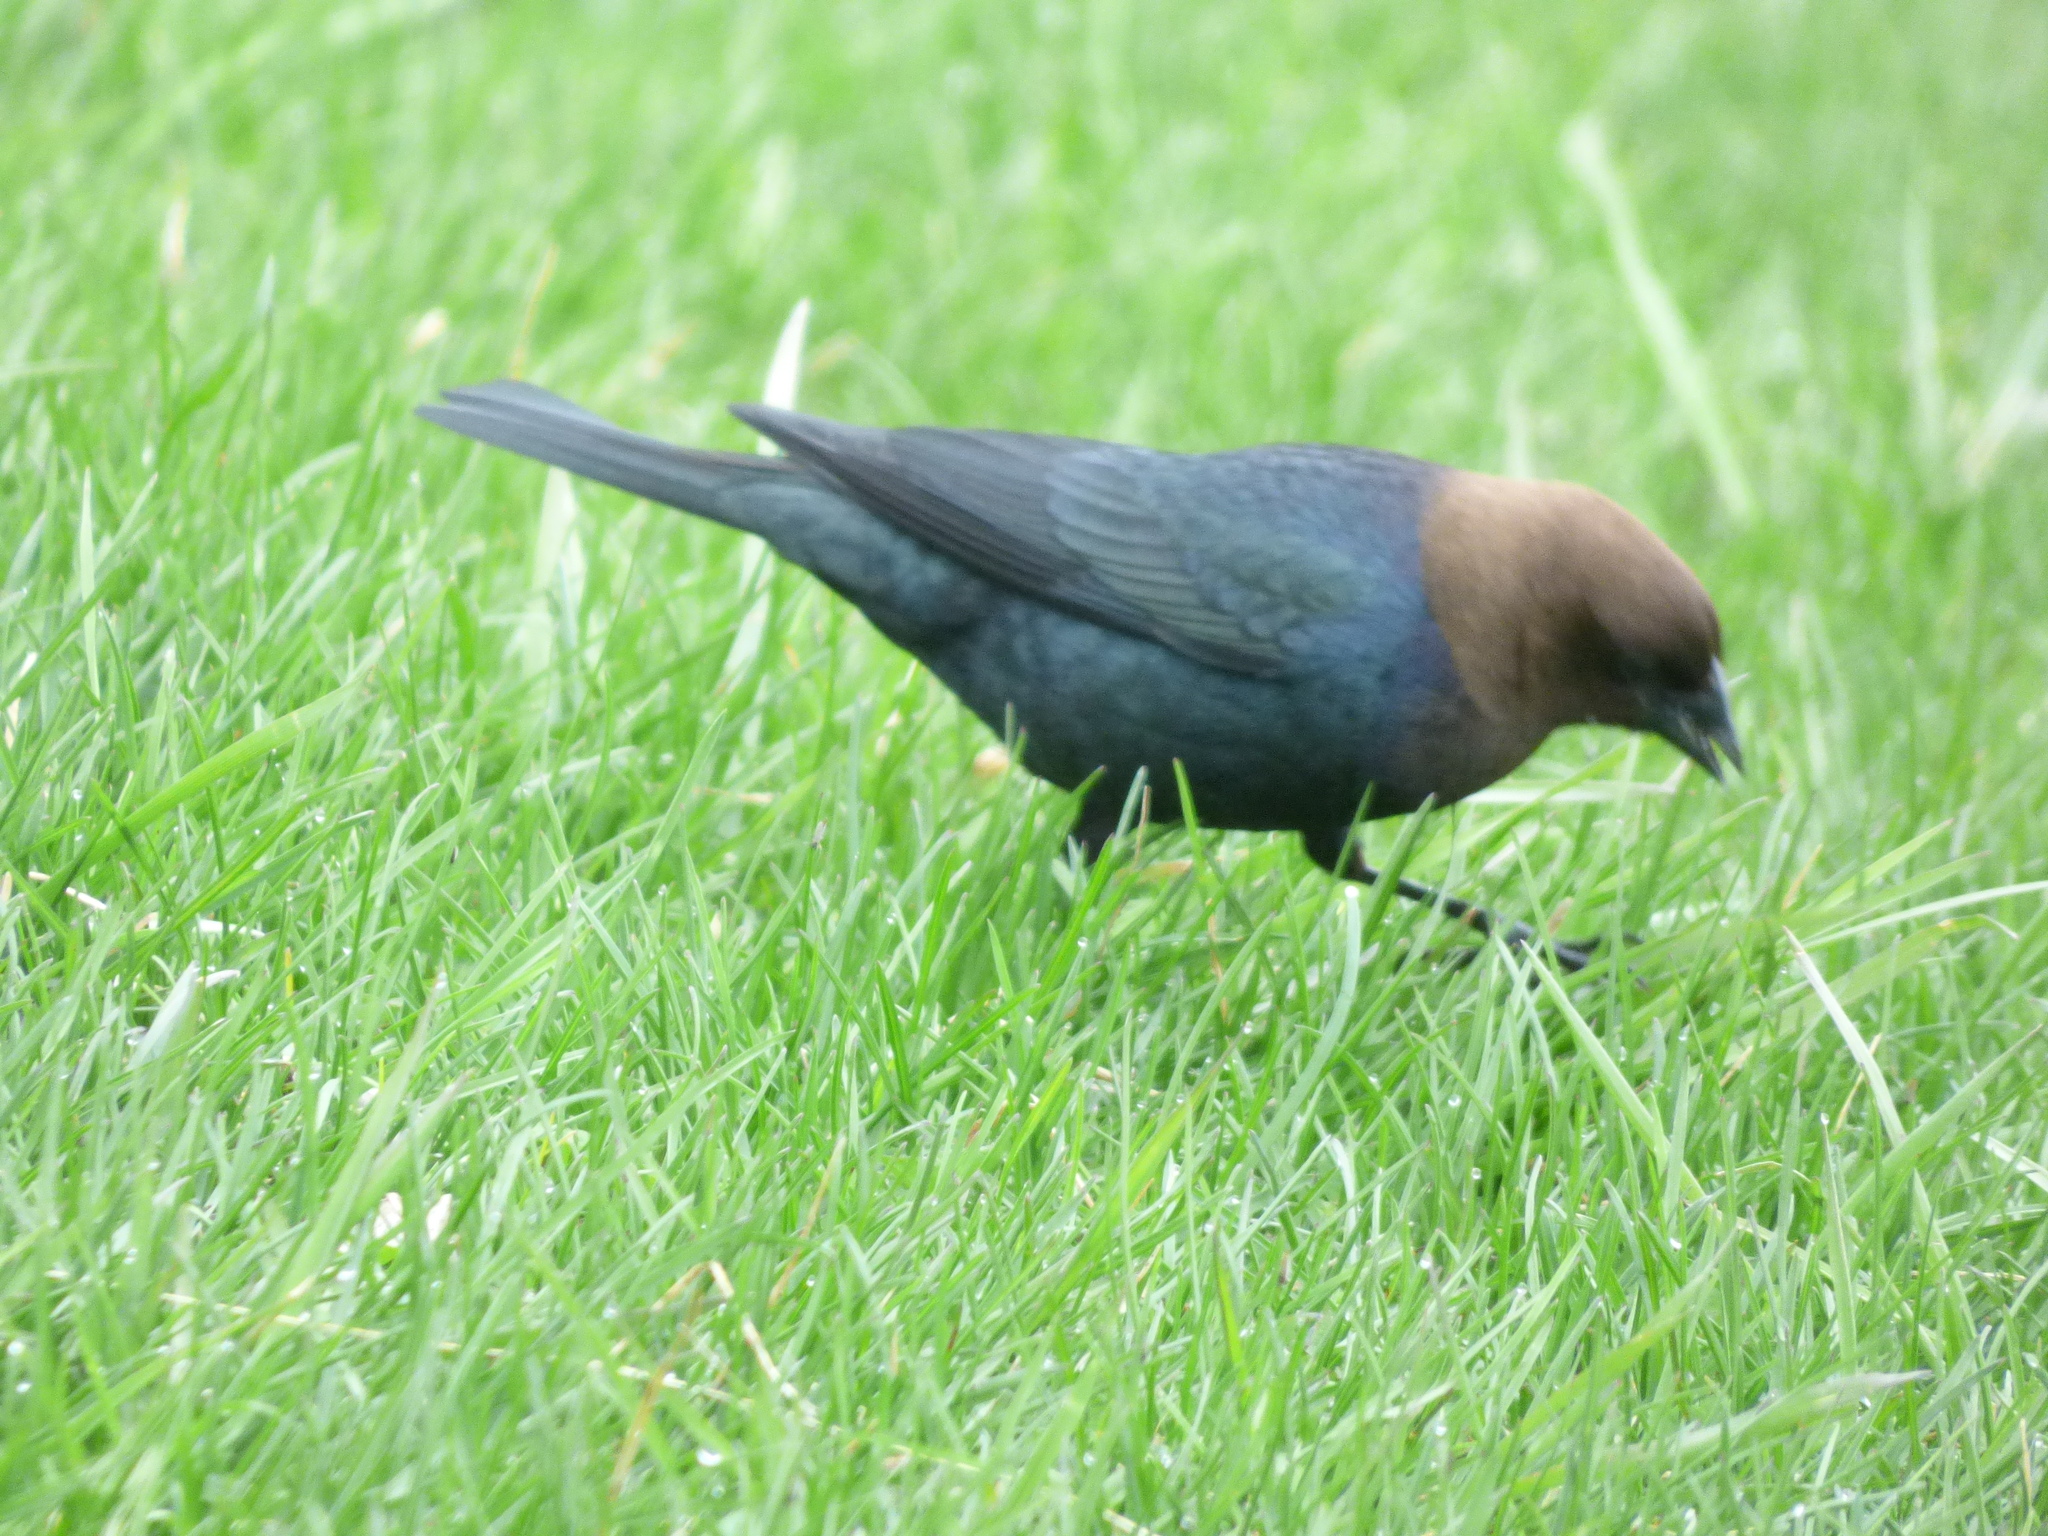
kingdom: Animalia
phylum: Chordata
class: Aves
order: Passeriformes
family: Icteridae
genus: Molothrus
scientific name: Molothrus ater
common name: Brown-headed cowbird
